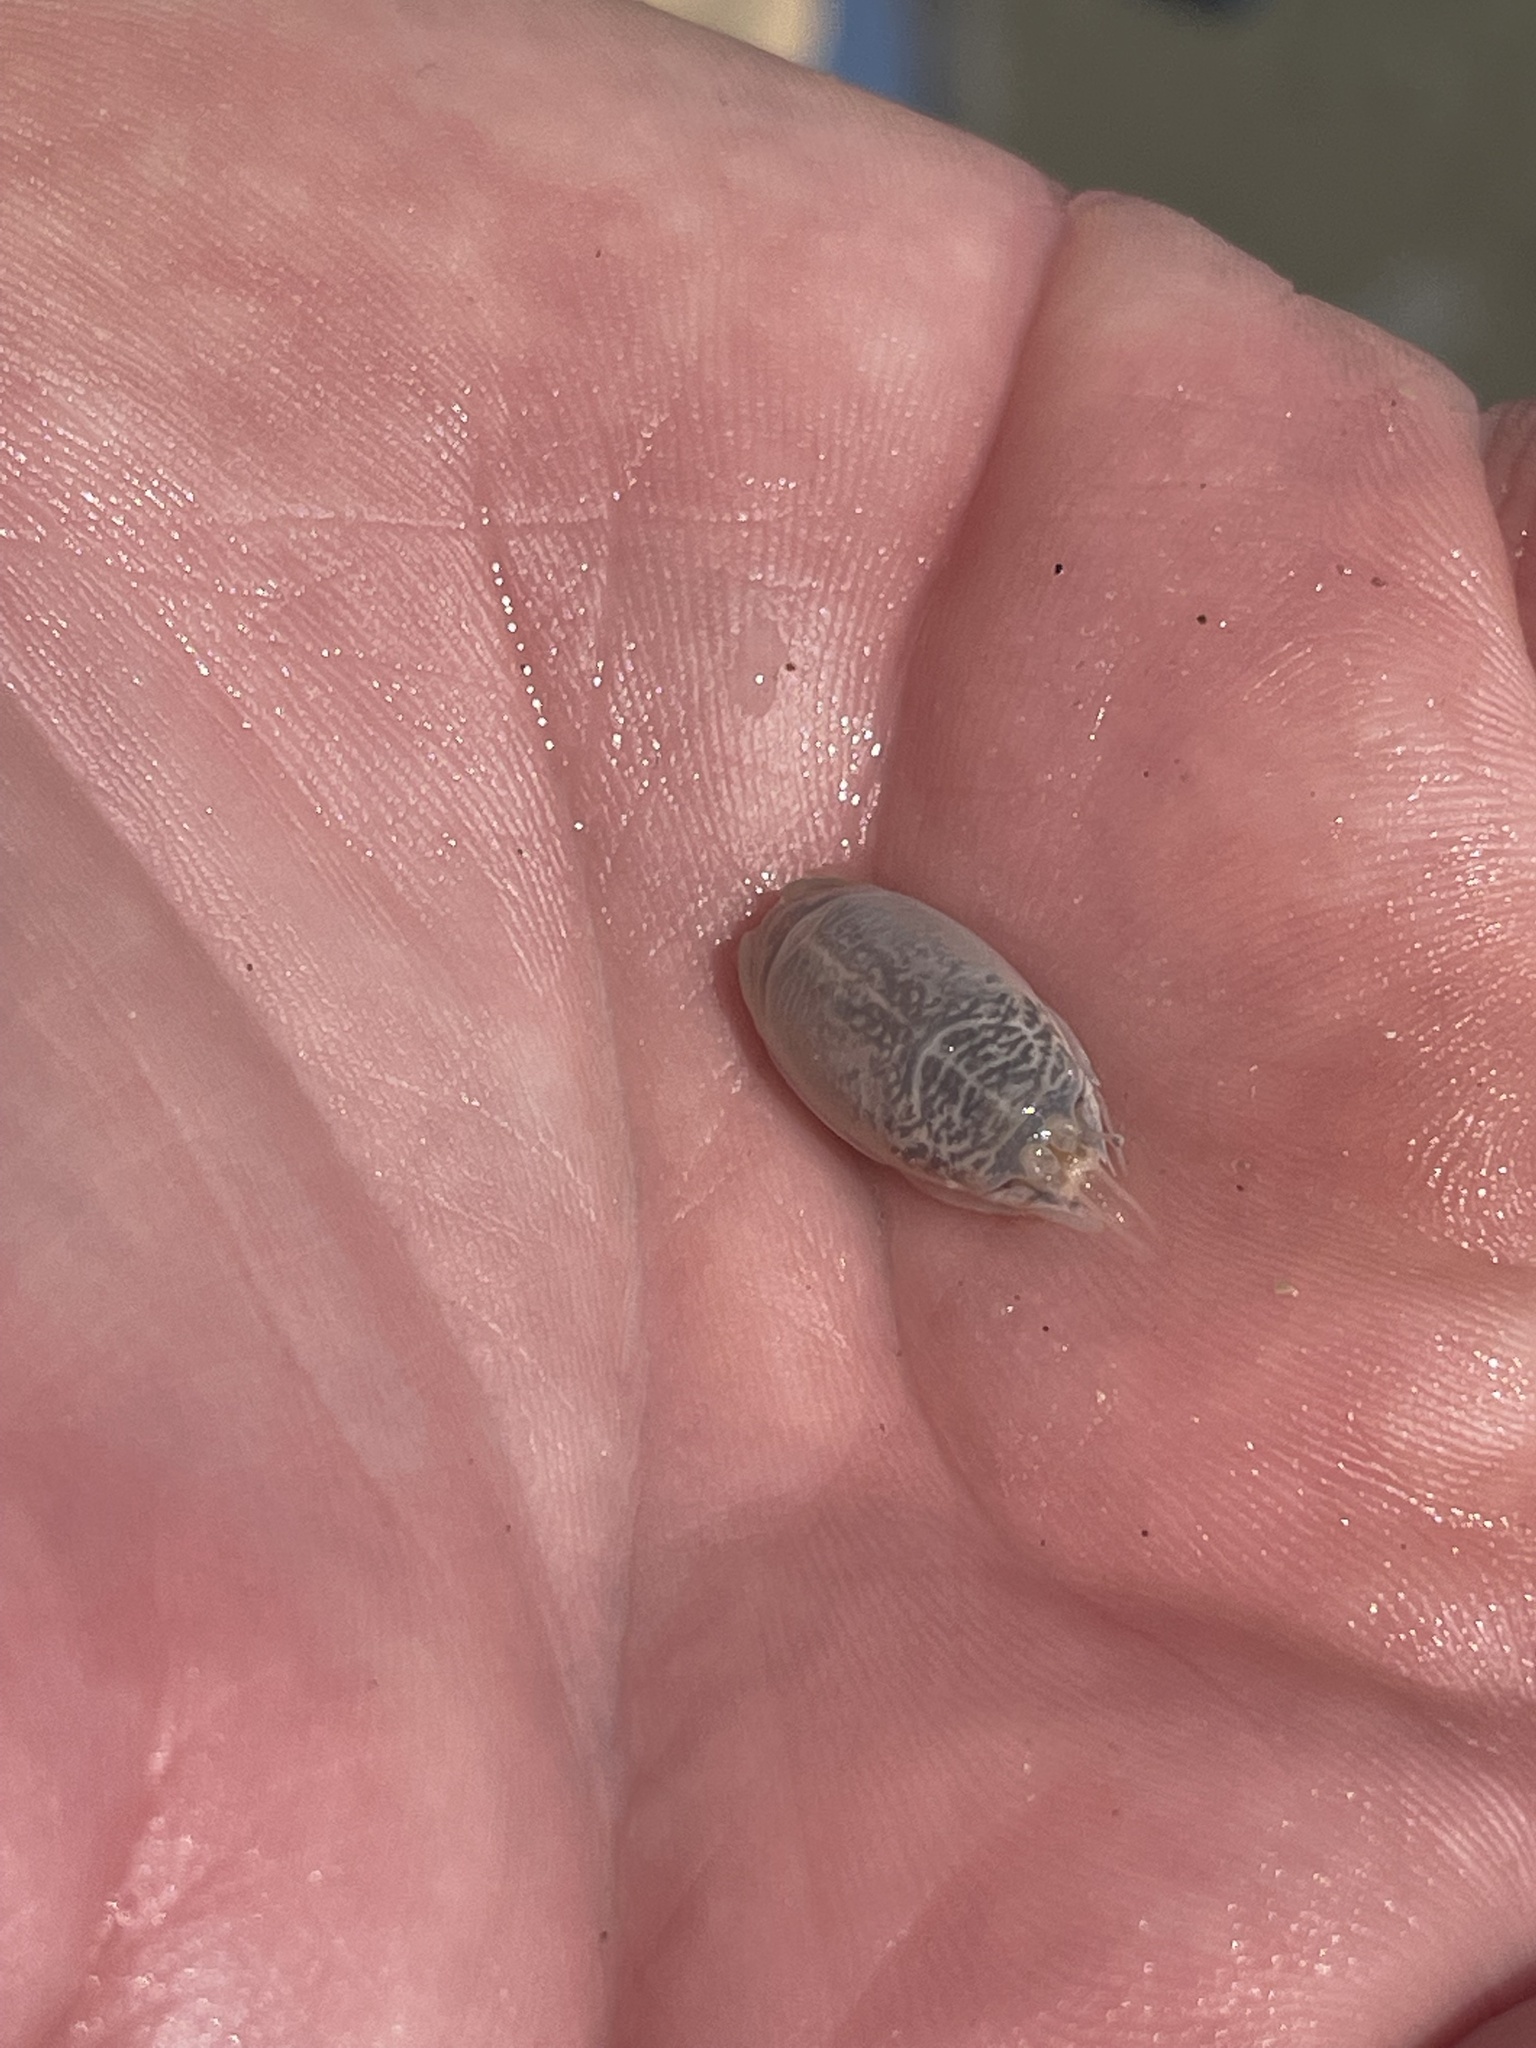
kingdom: Animalia
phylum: Arthropoda
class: Malacostraca
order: Decapoda
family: Hippidae
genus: Emerita
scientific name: Emerita talpoida
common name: Atlantic sand crab
